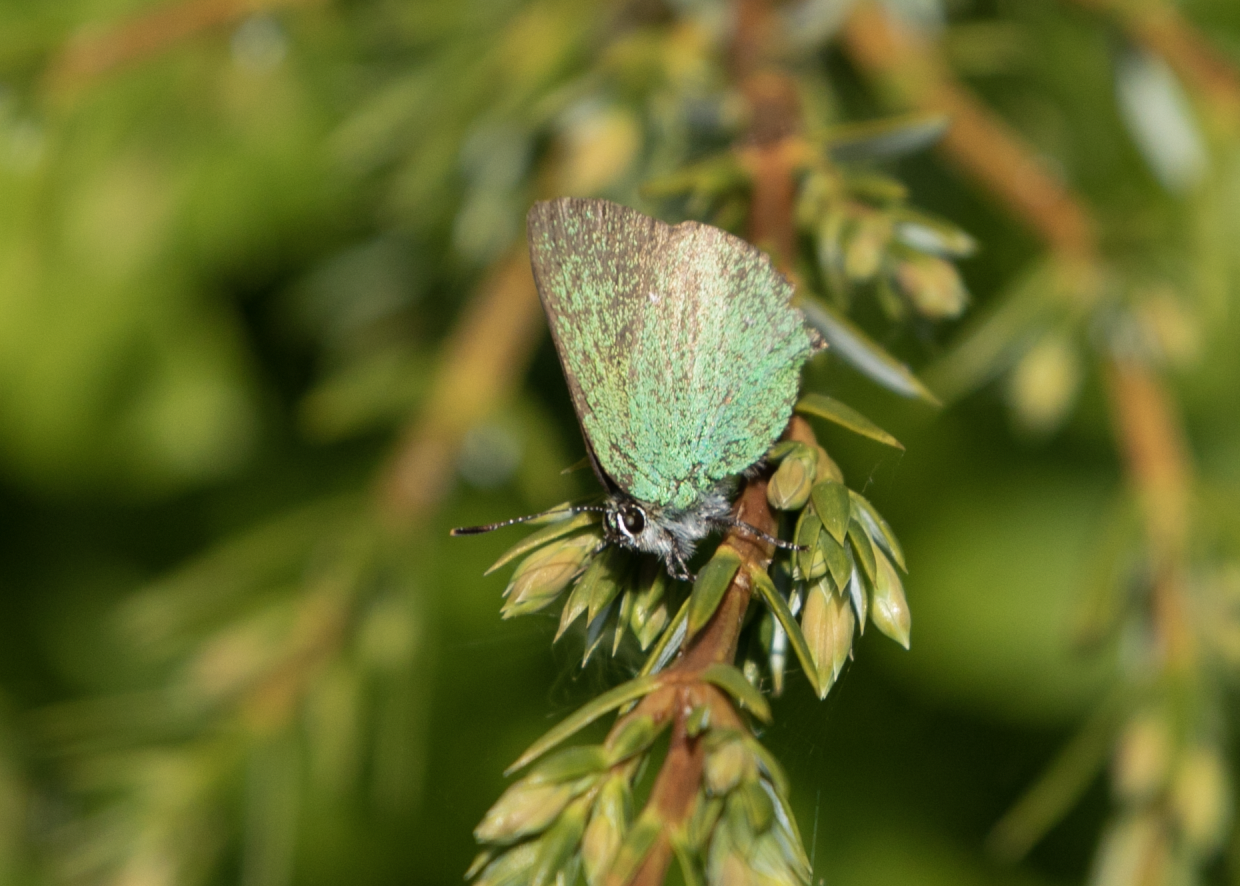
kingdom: Animalia
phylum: Arthropoda
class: Insecta
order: Lepidoptera
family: Lycaenidae
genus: Callophrys
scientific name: Callophrys rubi
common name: Green hairstreak
